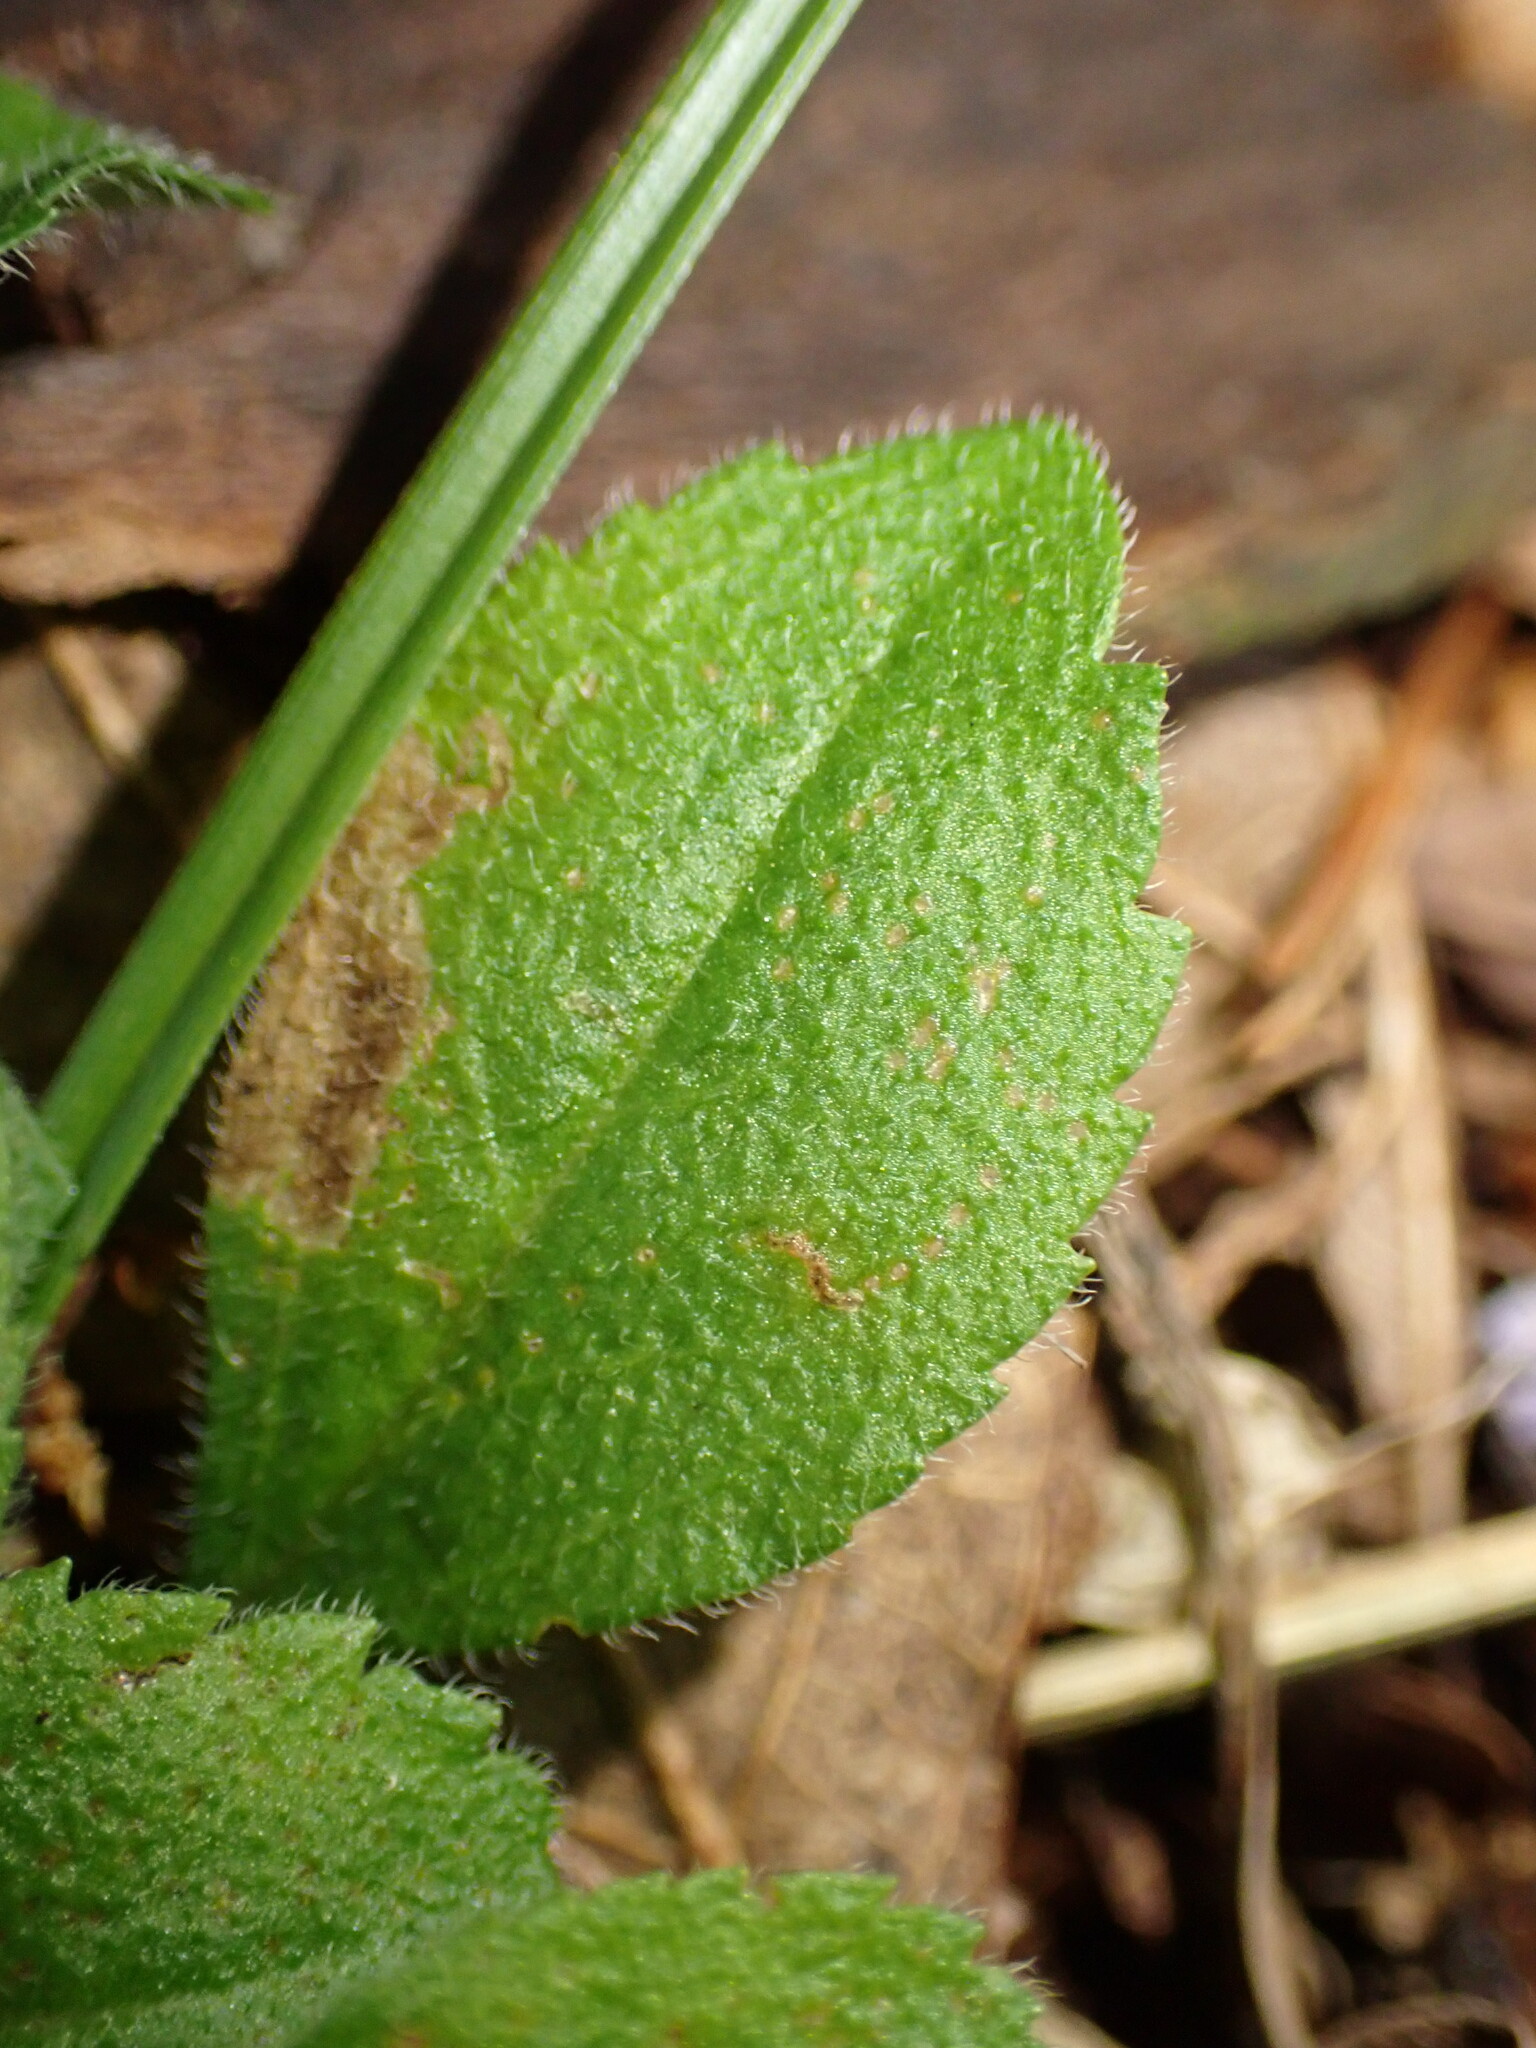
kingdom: Animalia
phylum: Arthropoda
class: Insecta
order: Diptera
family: Agromyzidae
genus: Phytomyza
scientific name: Phytomyza crassiseta
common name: Leaf-miner fly
